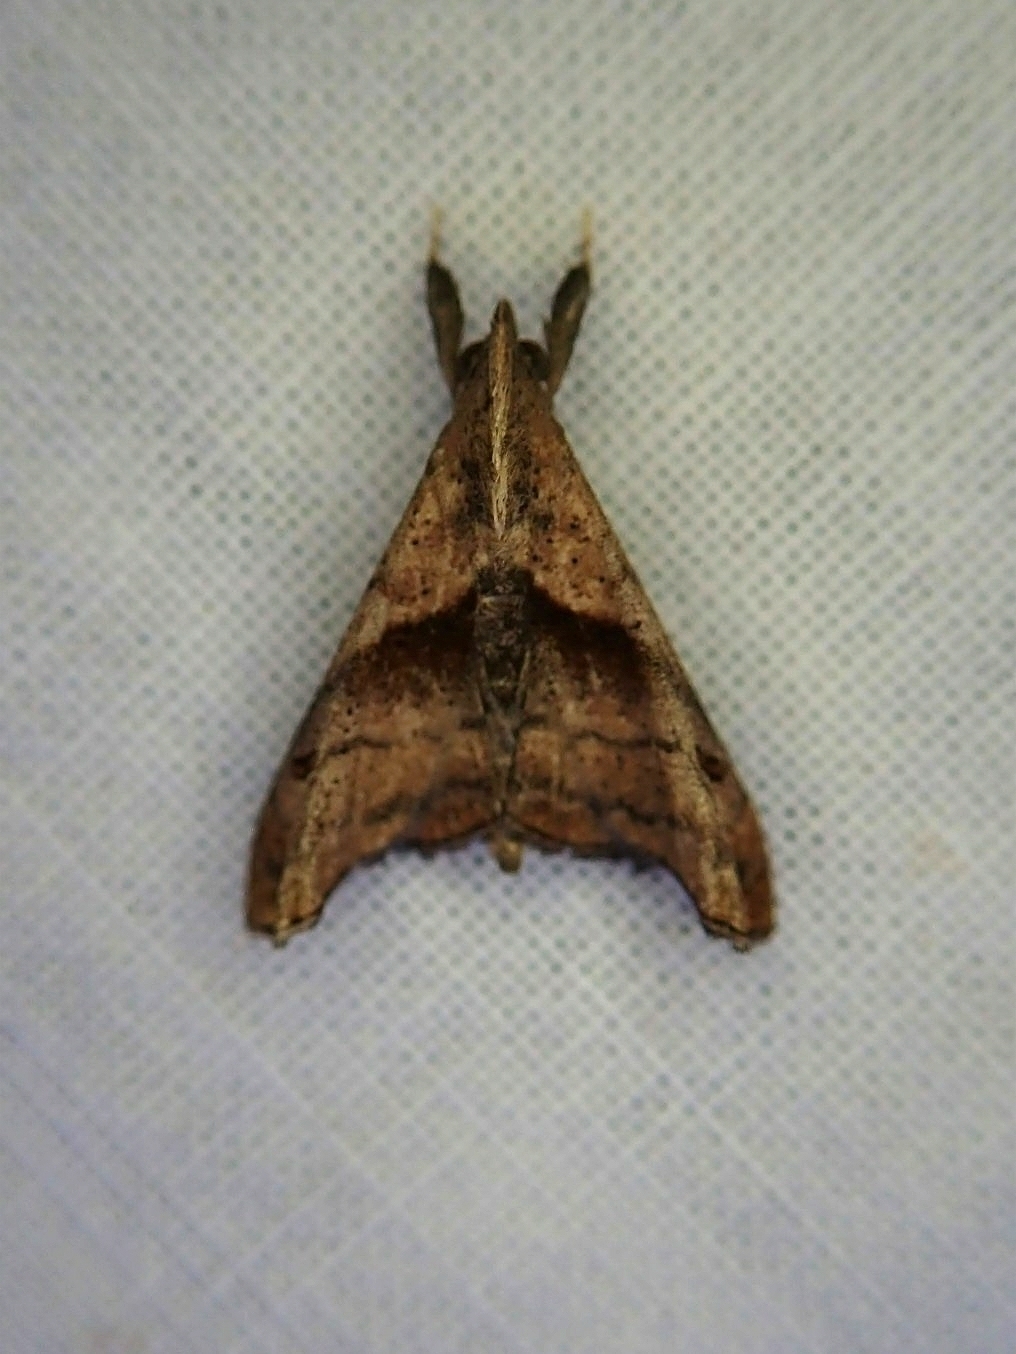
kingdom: Animalia
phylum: Arthropoda
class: Insecta
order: Lepidoptera
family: Erebidae
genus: Palthis
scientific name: Palthis asopialis
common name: Faint-spotted palthis moth
